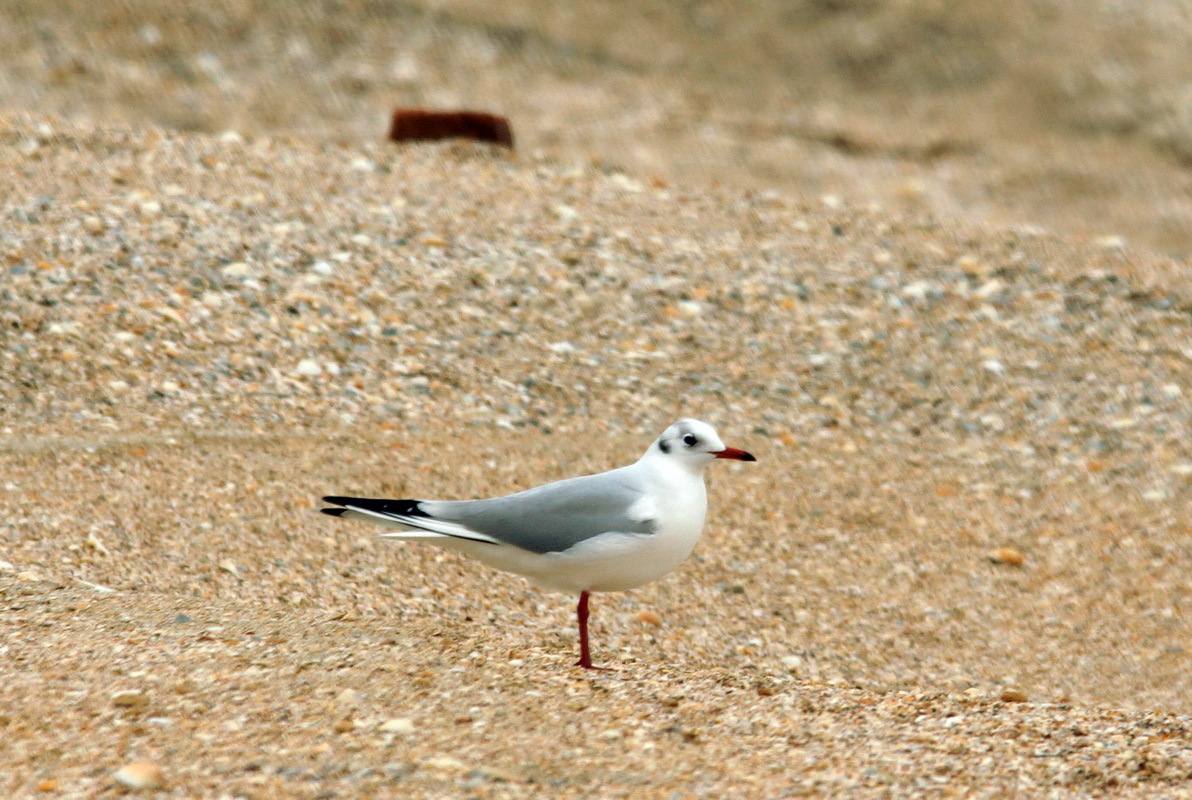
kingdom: Animalia
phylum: Chordata
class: Aves
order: Charadriiformes
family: Laridae
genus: Chroicocephalus
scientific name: Chroicocephalus ridibundus
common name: Black-headed gull
